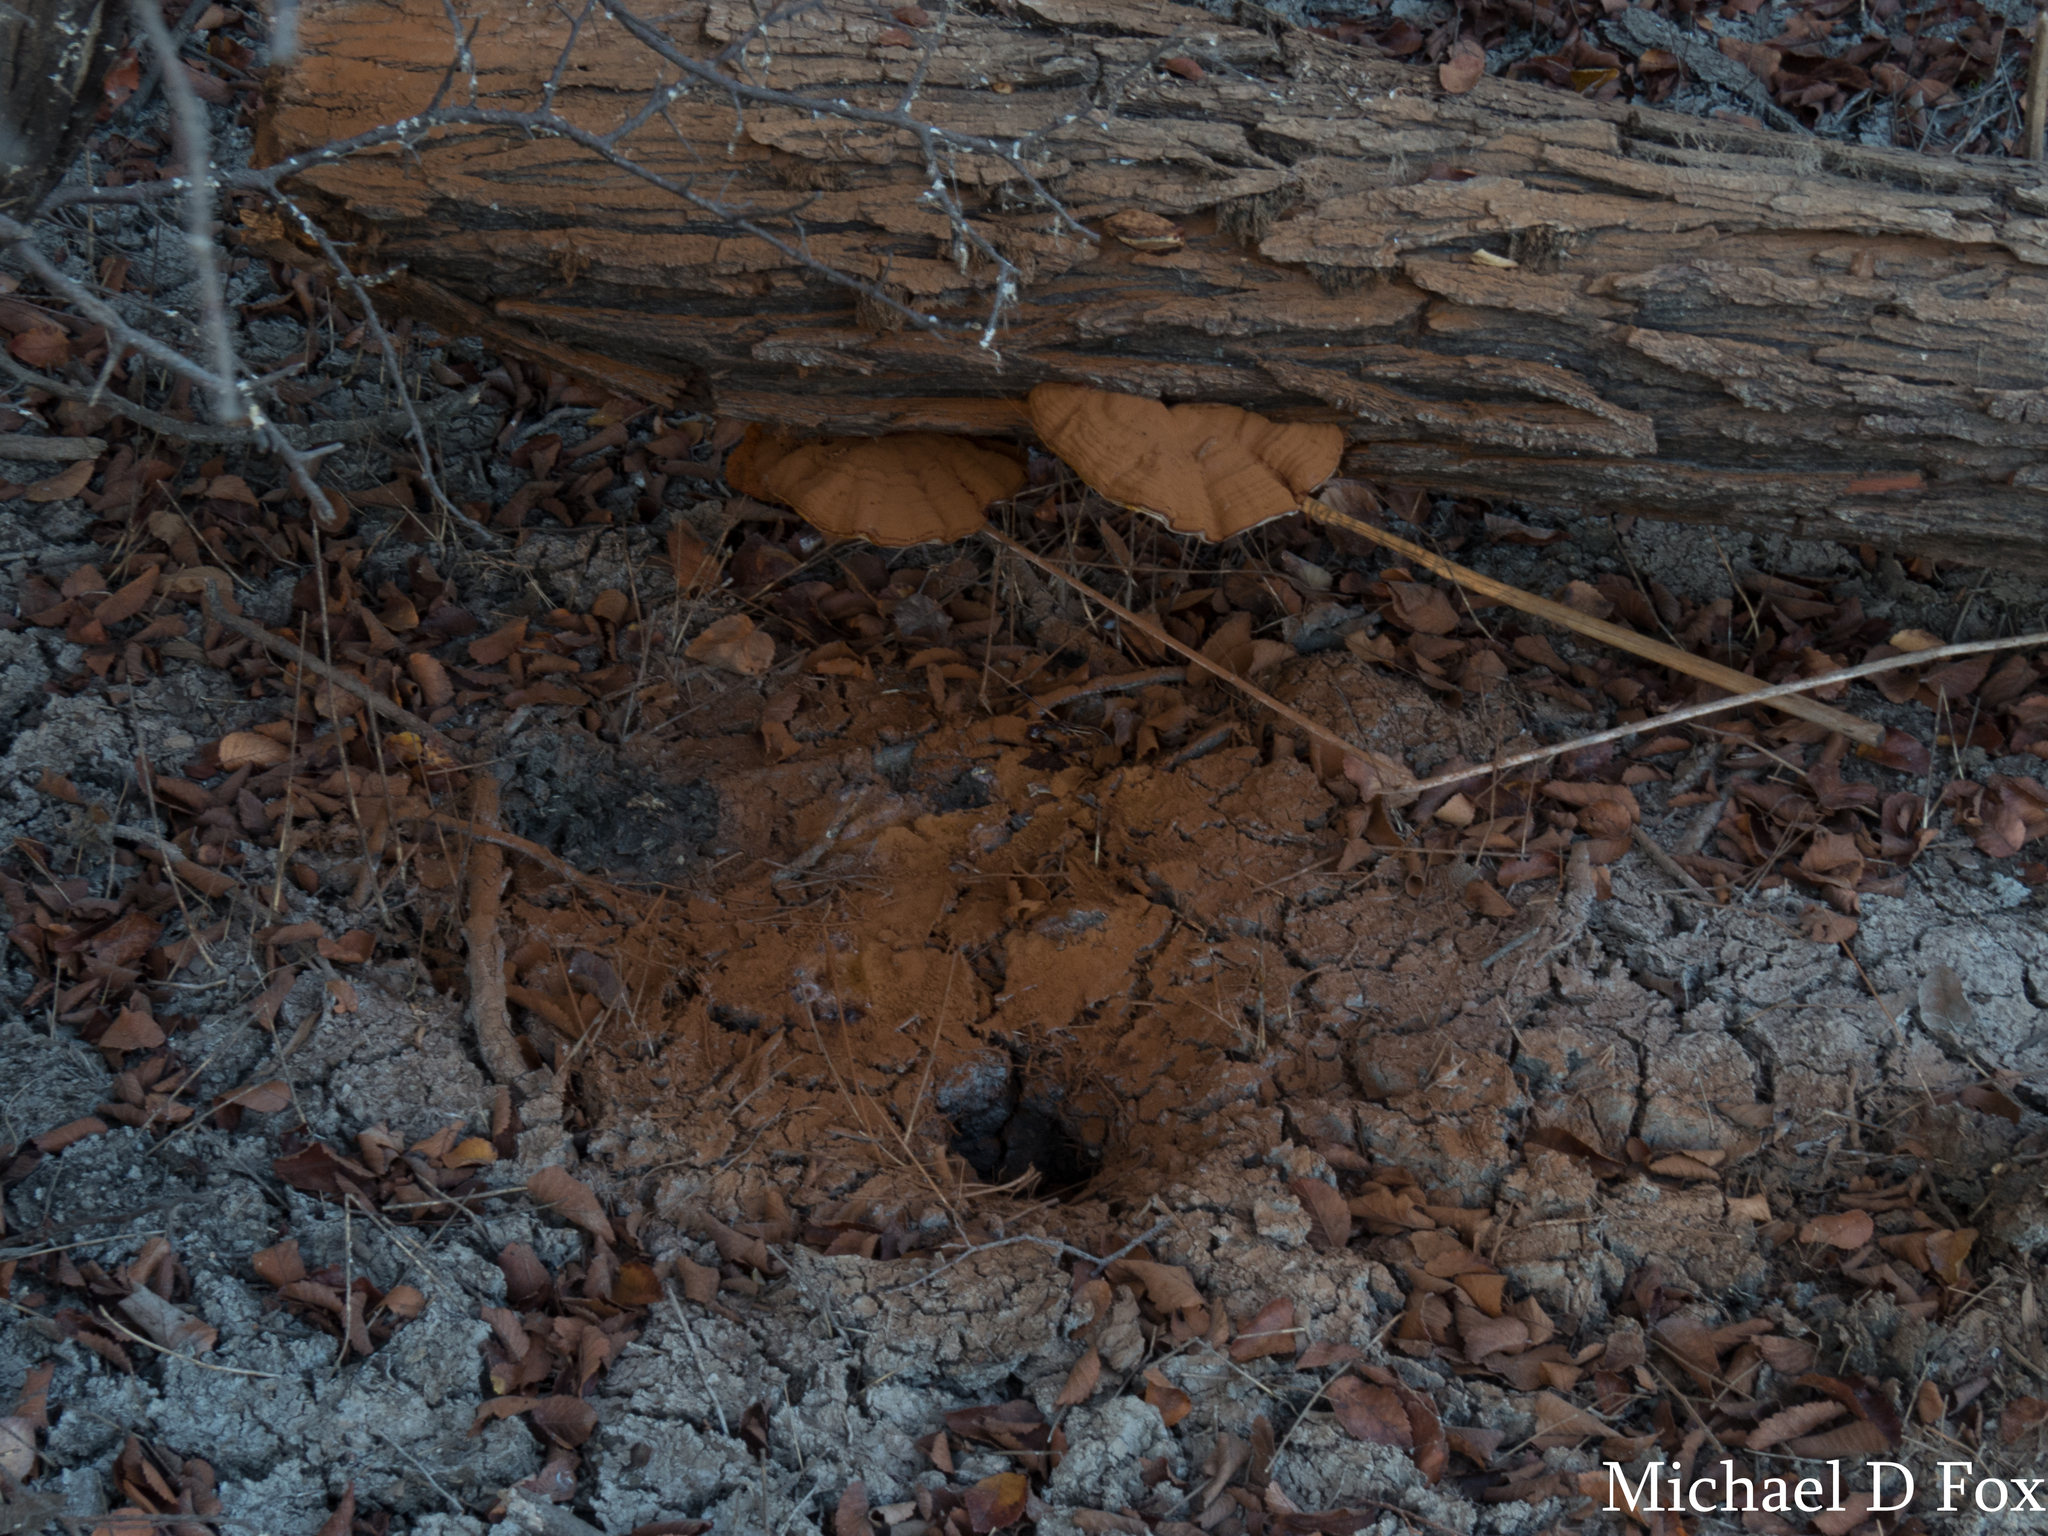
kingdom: Fungi
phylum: Basidiomycota
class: Agaricomycetes
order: Polyporales
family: Polyporaceae
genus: Ganoderma
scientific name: Ganoderma applanatum
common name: Artist's bracket
